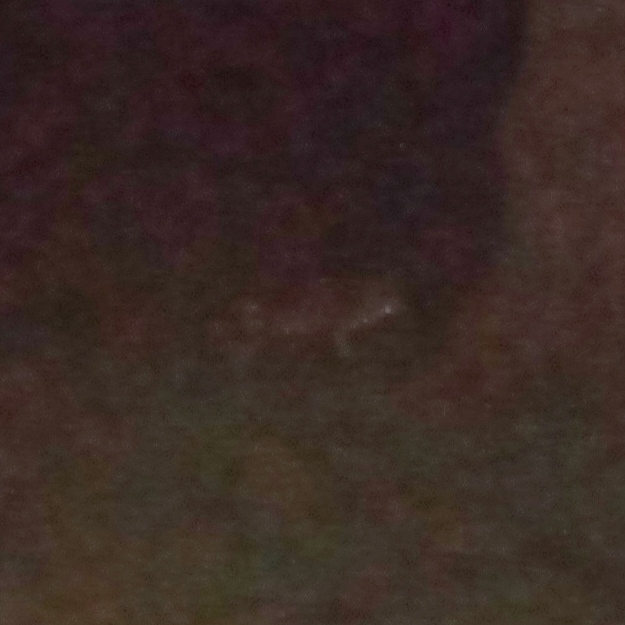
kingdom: Animalia
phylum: Chordata
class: Mammalia
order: Carnivora
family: Canidae
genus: Vulpes
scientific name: Vulpes vulpes
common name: Red fox
